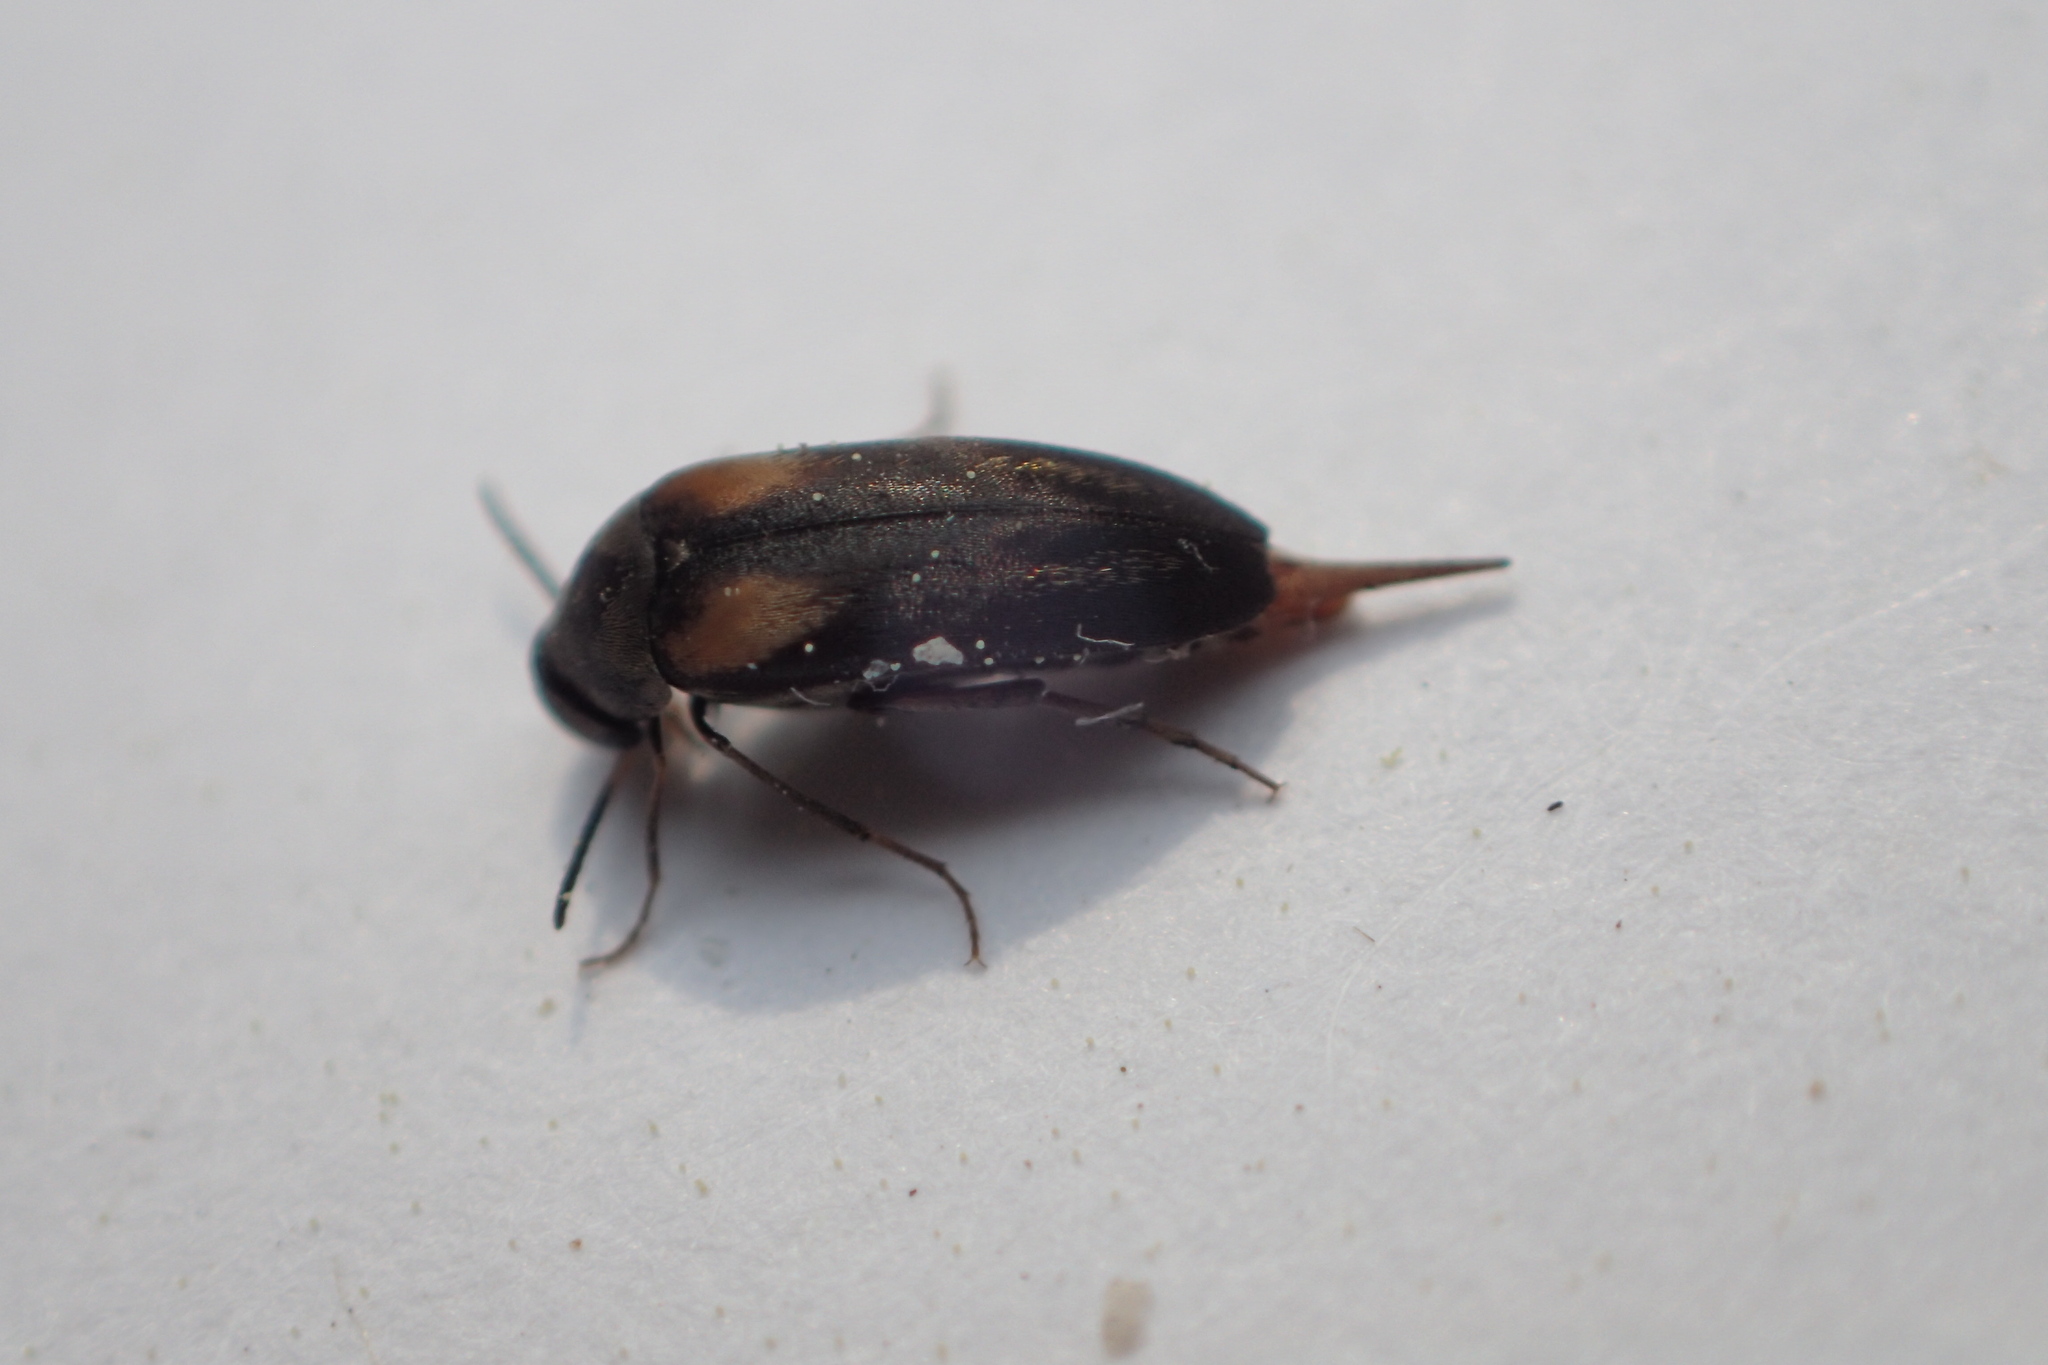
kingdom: Animalia
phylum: Arthropoda
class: Insecta
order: Coleoptera
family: Mordellidae
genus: Mordellochroa
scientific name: Mordellochroa scapularis
